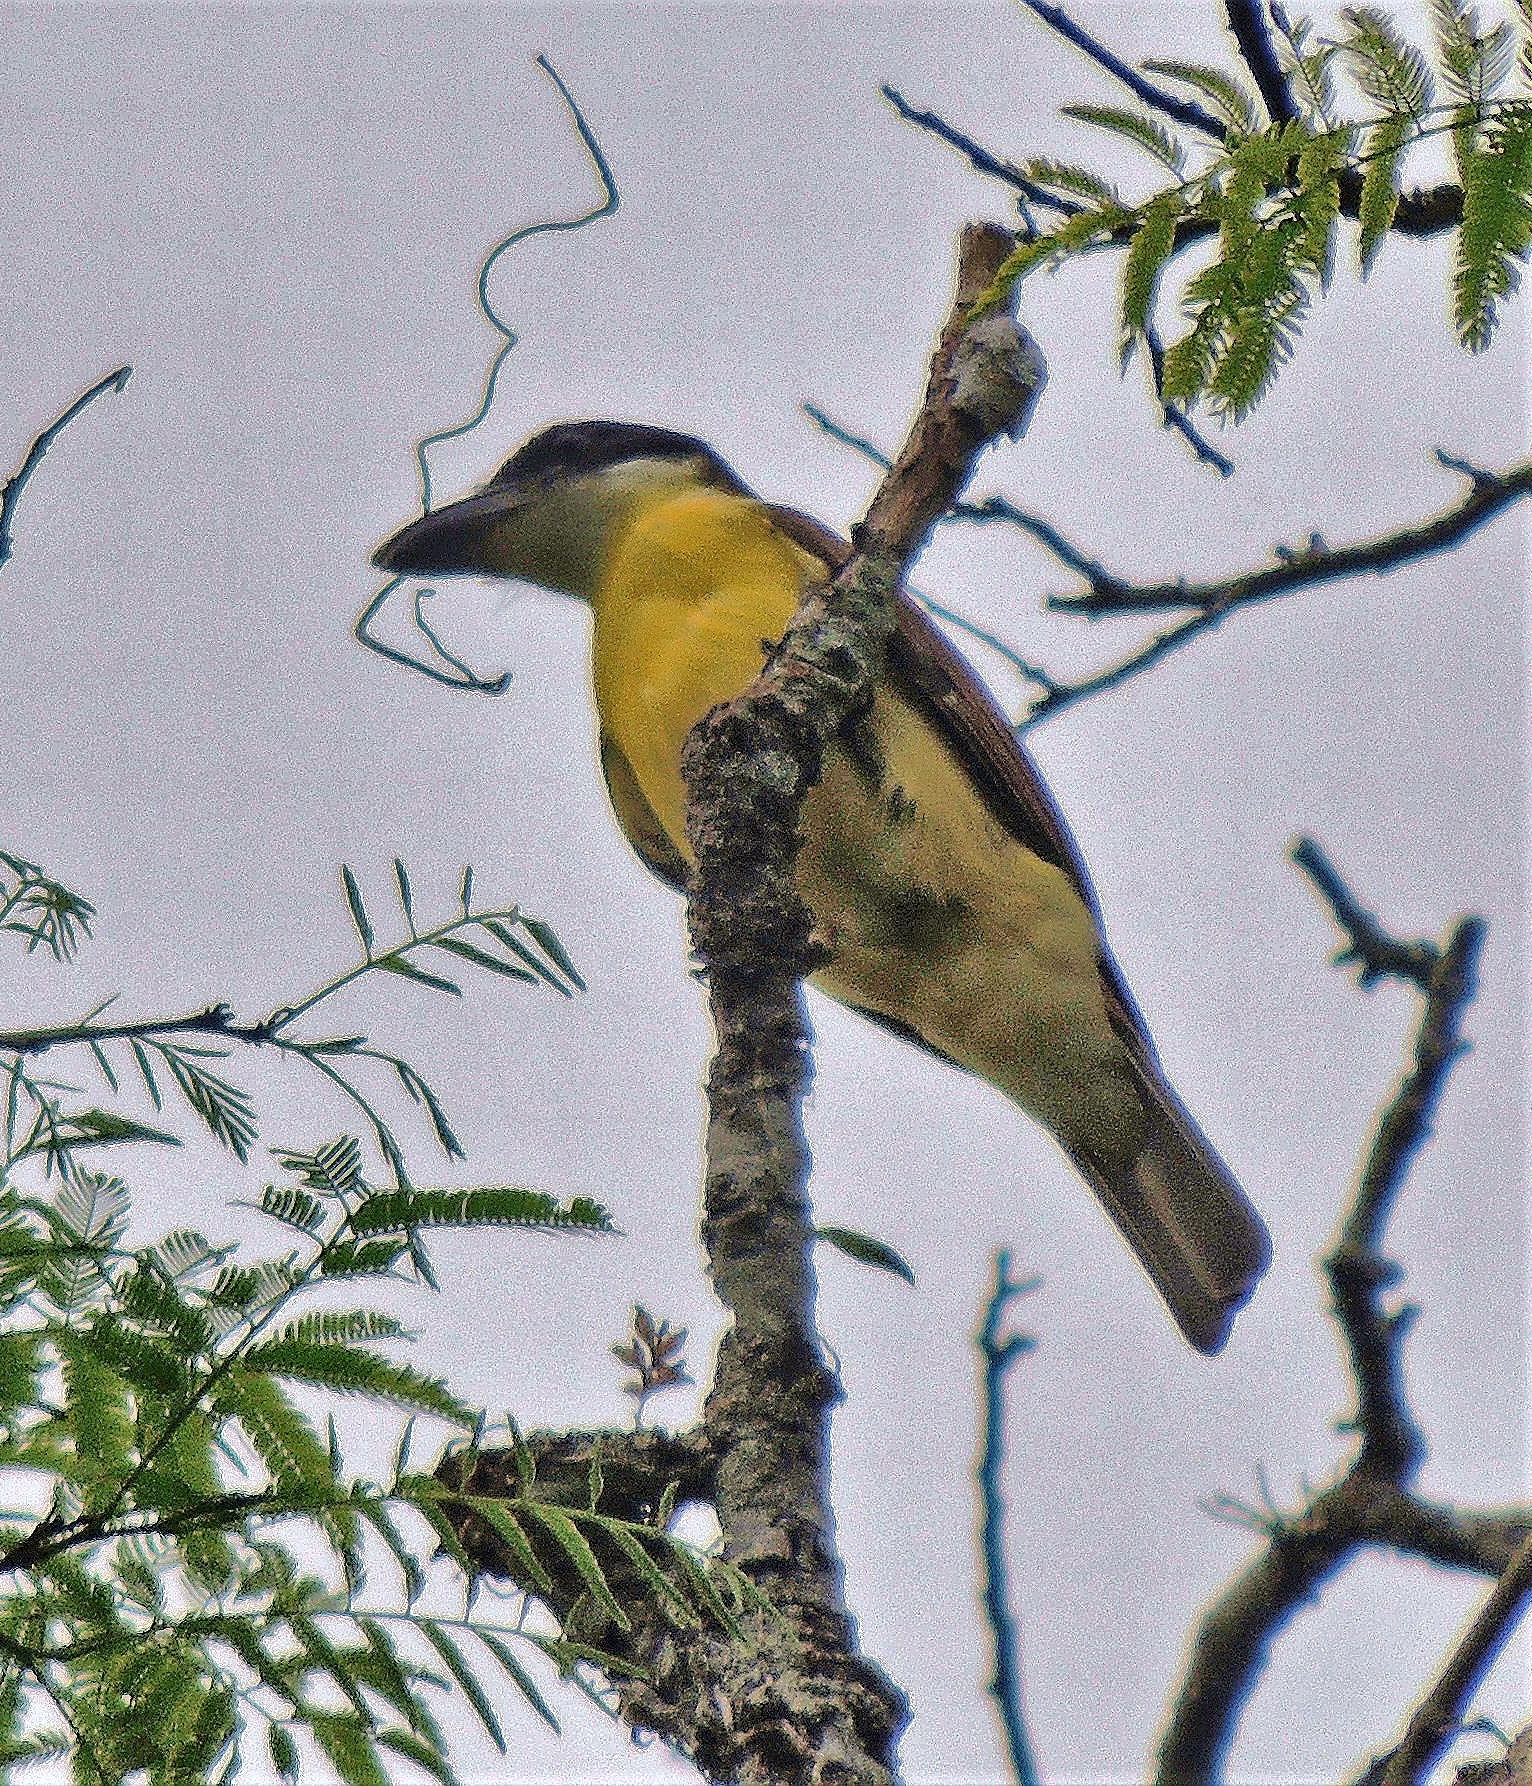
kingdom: Animalia
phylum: Chordata
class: Aves
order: Passeriformes
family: Tyrannidae
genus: Megarynchus
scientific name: Megarynchus pitangua
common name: Boat-billed flycatcher
